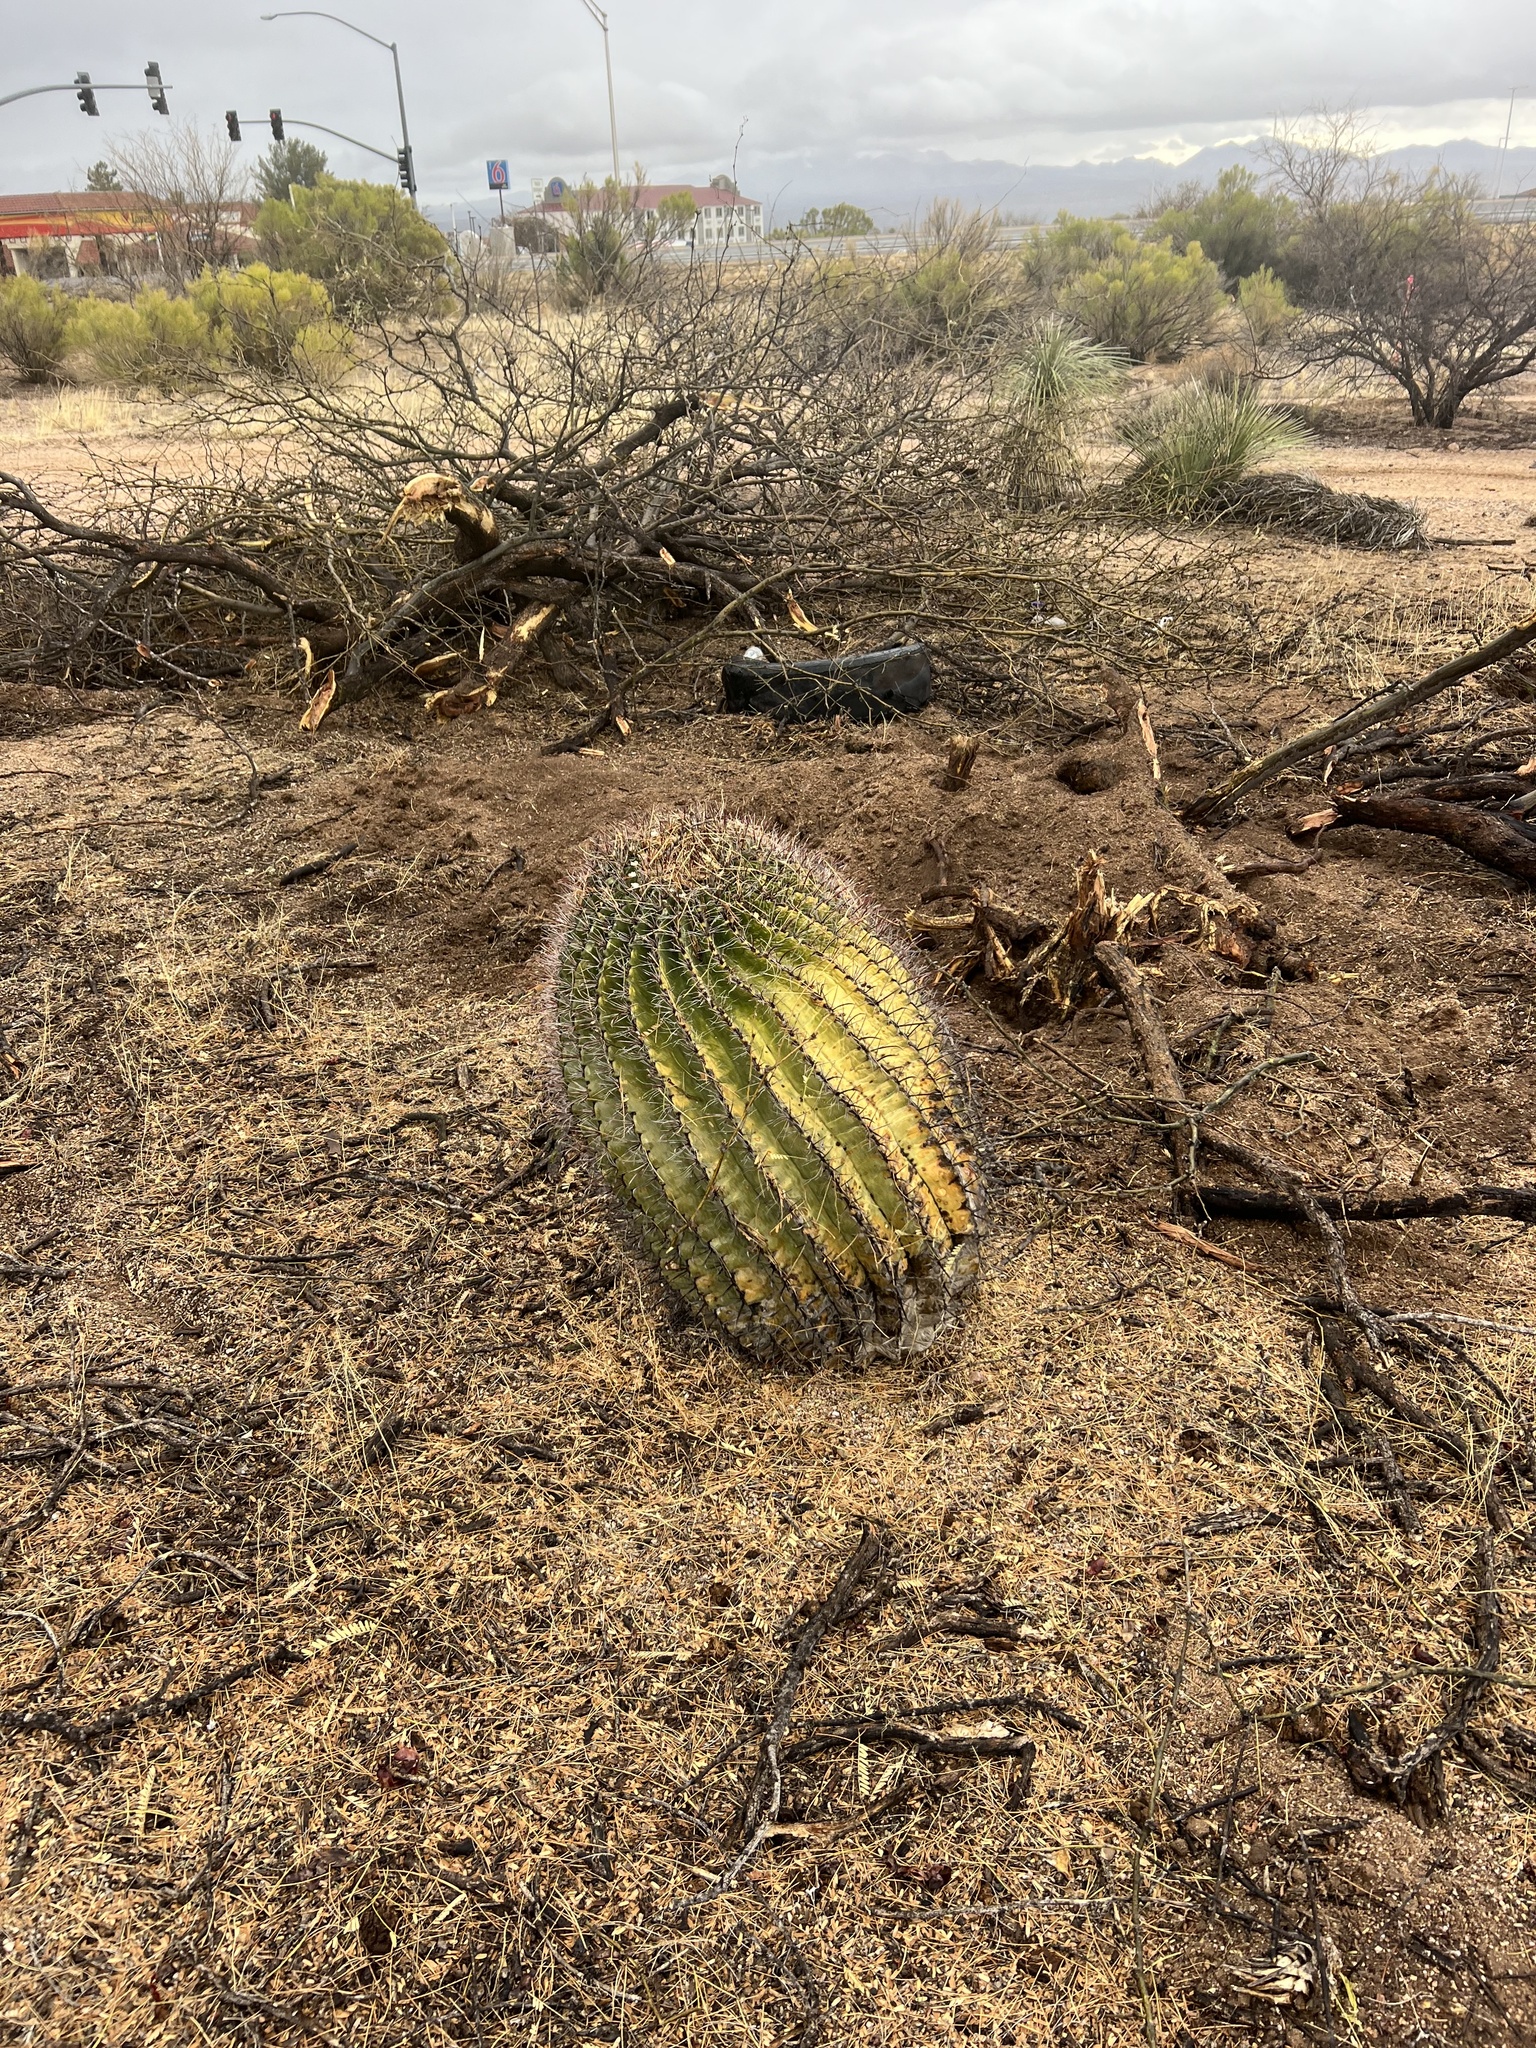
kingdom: Plantae
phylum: Tracheophyta
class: Magnoliopsida
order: Caryophyllales
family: Cactaceae
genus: Ferocactus
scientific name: Ferocactus wislizeni
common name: Candy barrel cactus
